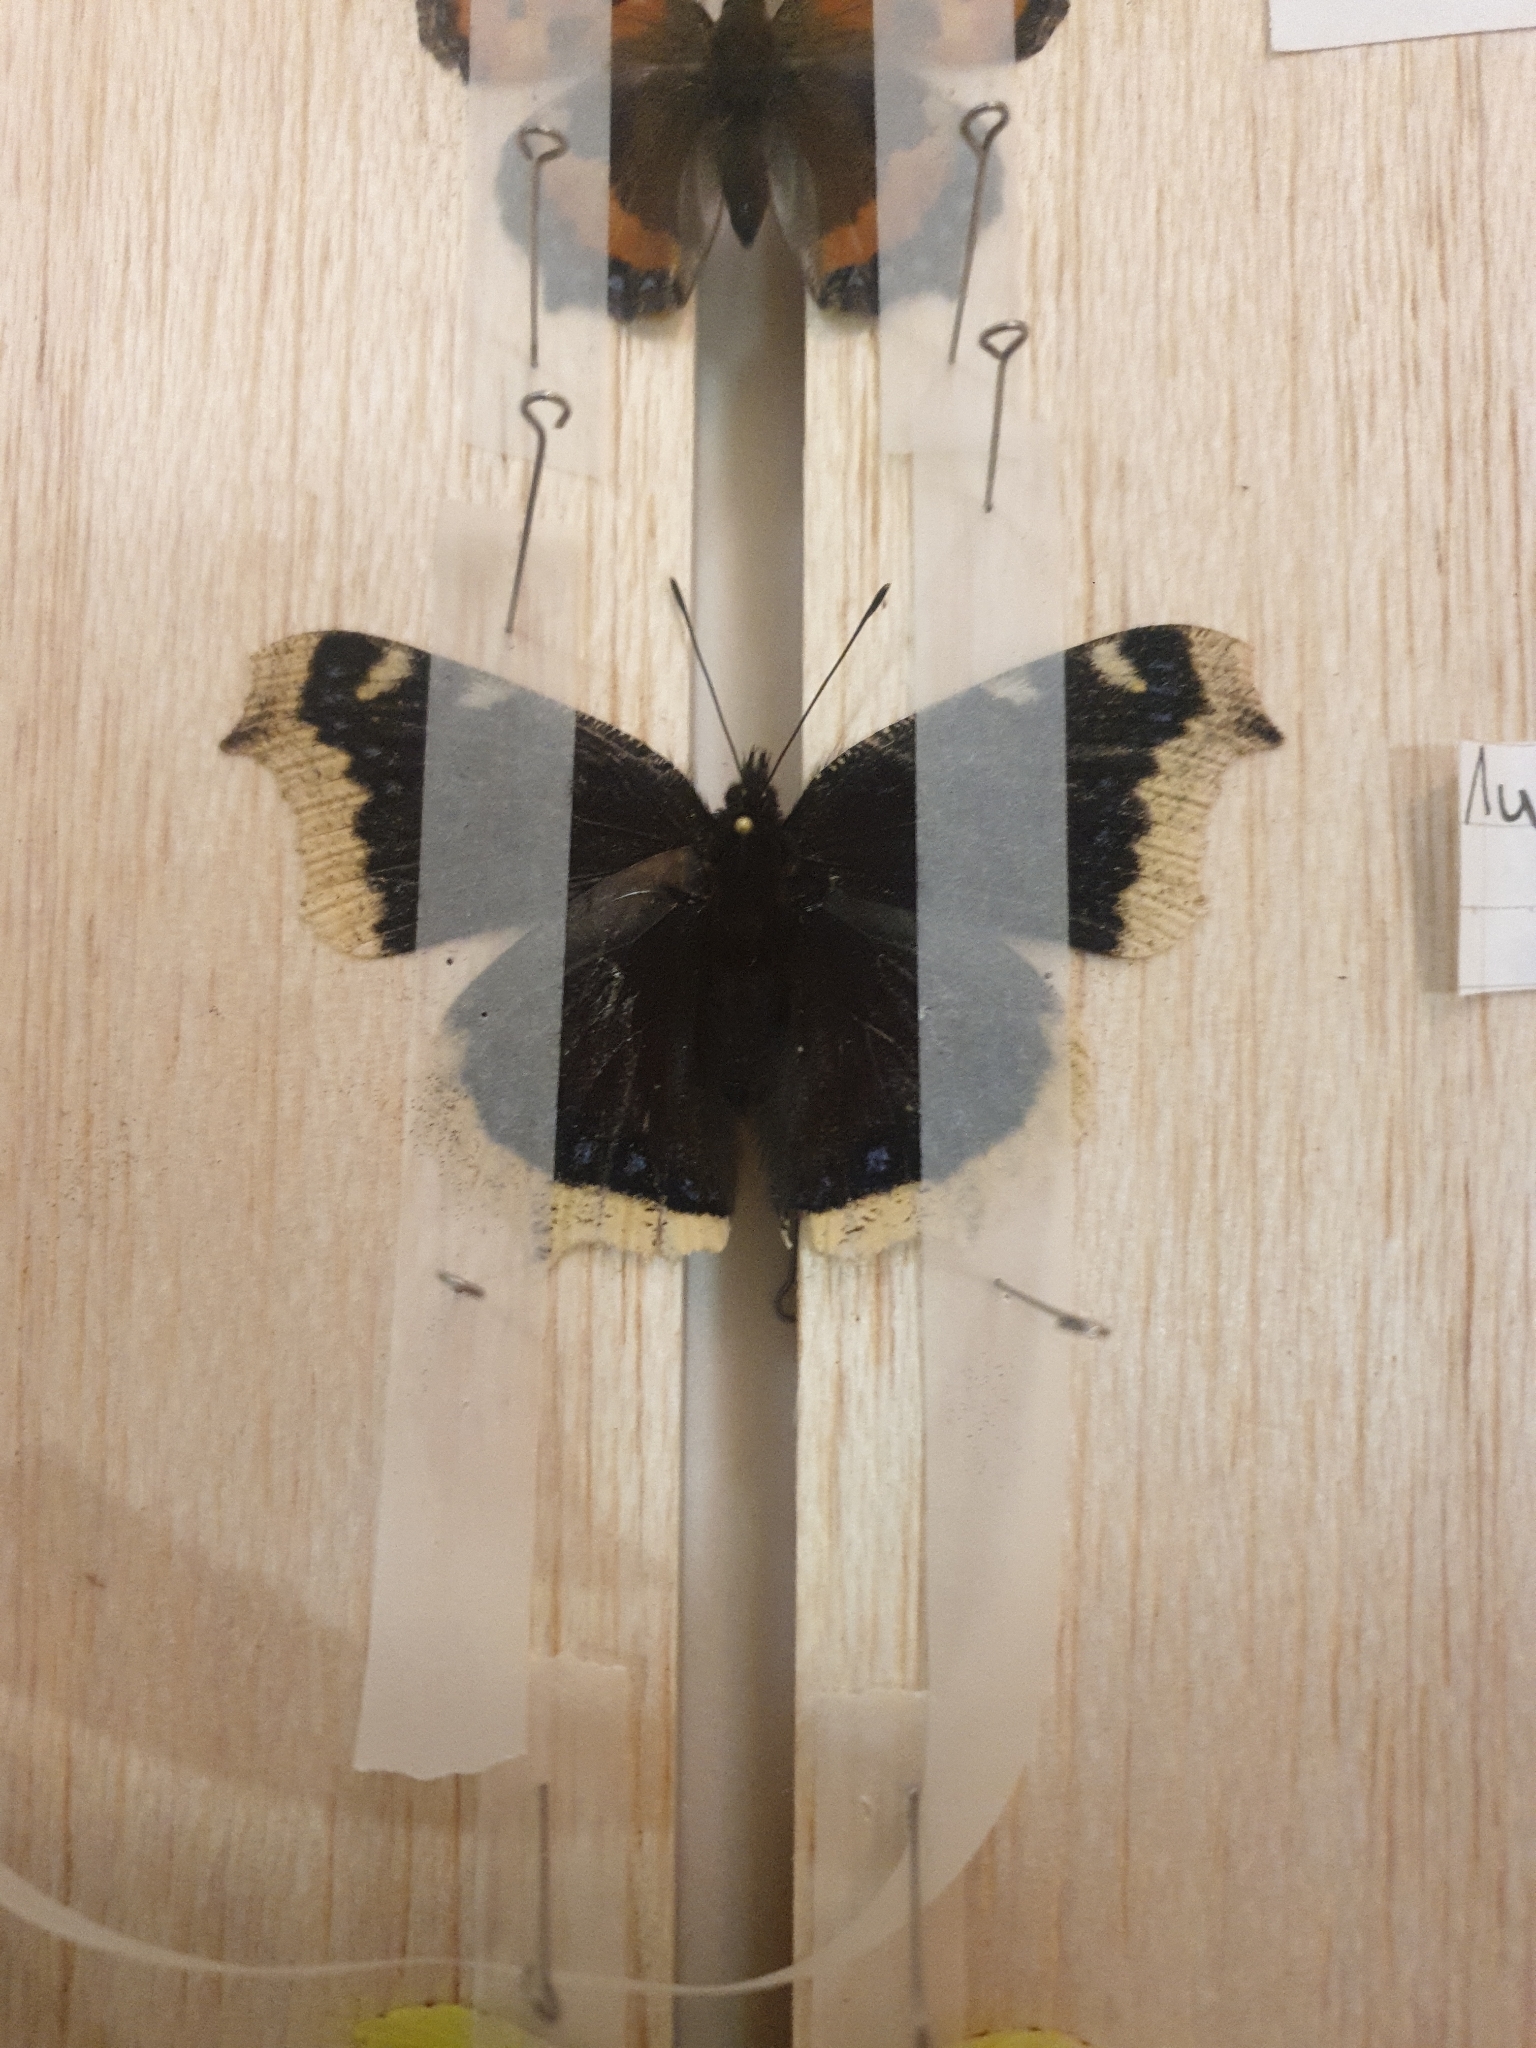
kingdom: Animalia
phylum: Arthropoda
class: Insecta
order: Lepidoptera
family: Nymphalidae
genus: Nymphalis
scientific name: Nymphalis antiopa
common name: Camberwell beauty
